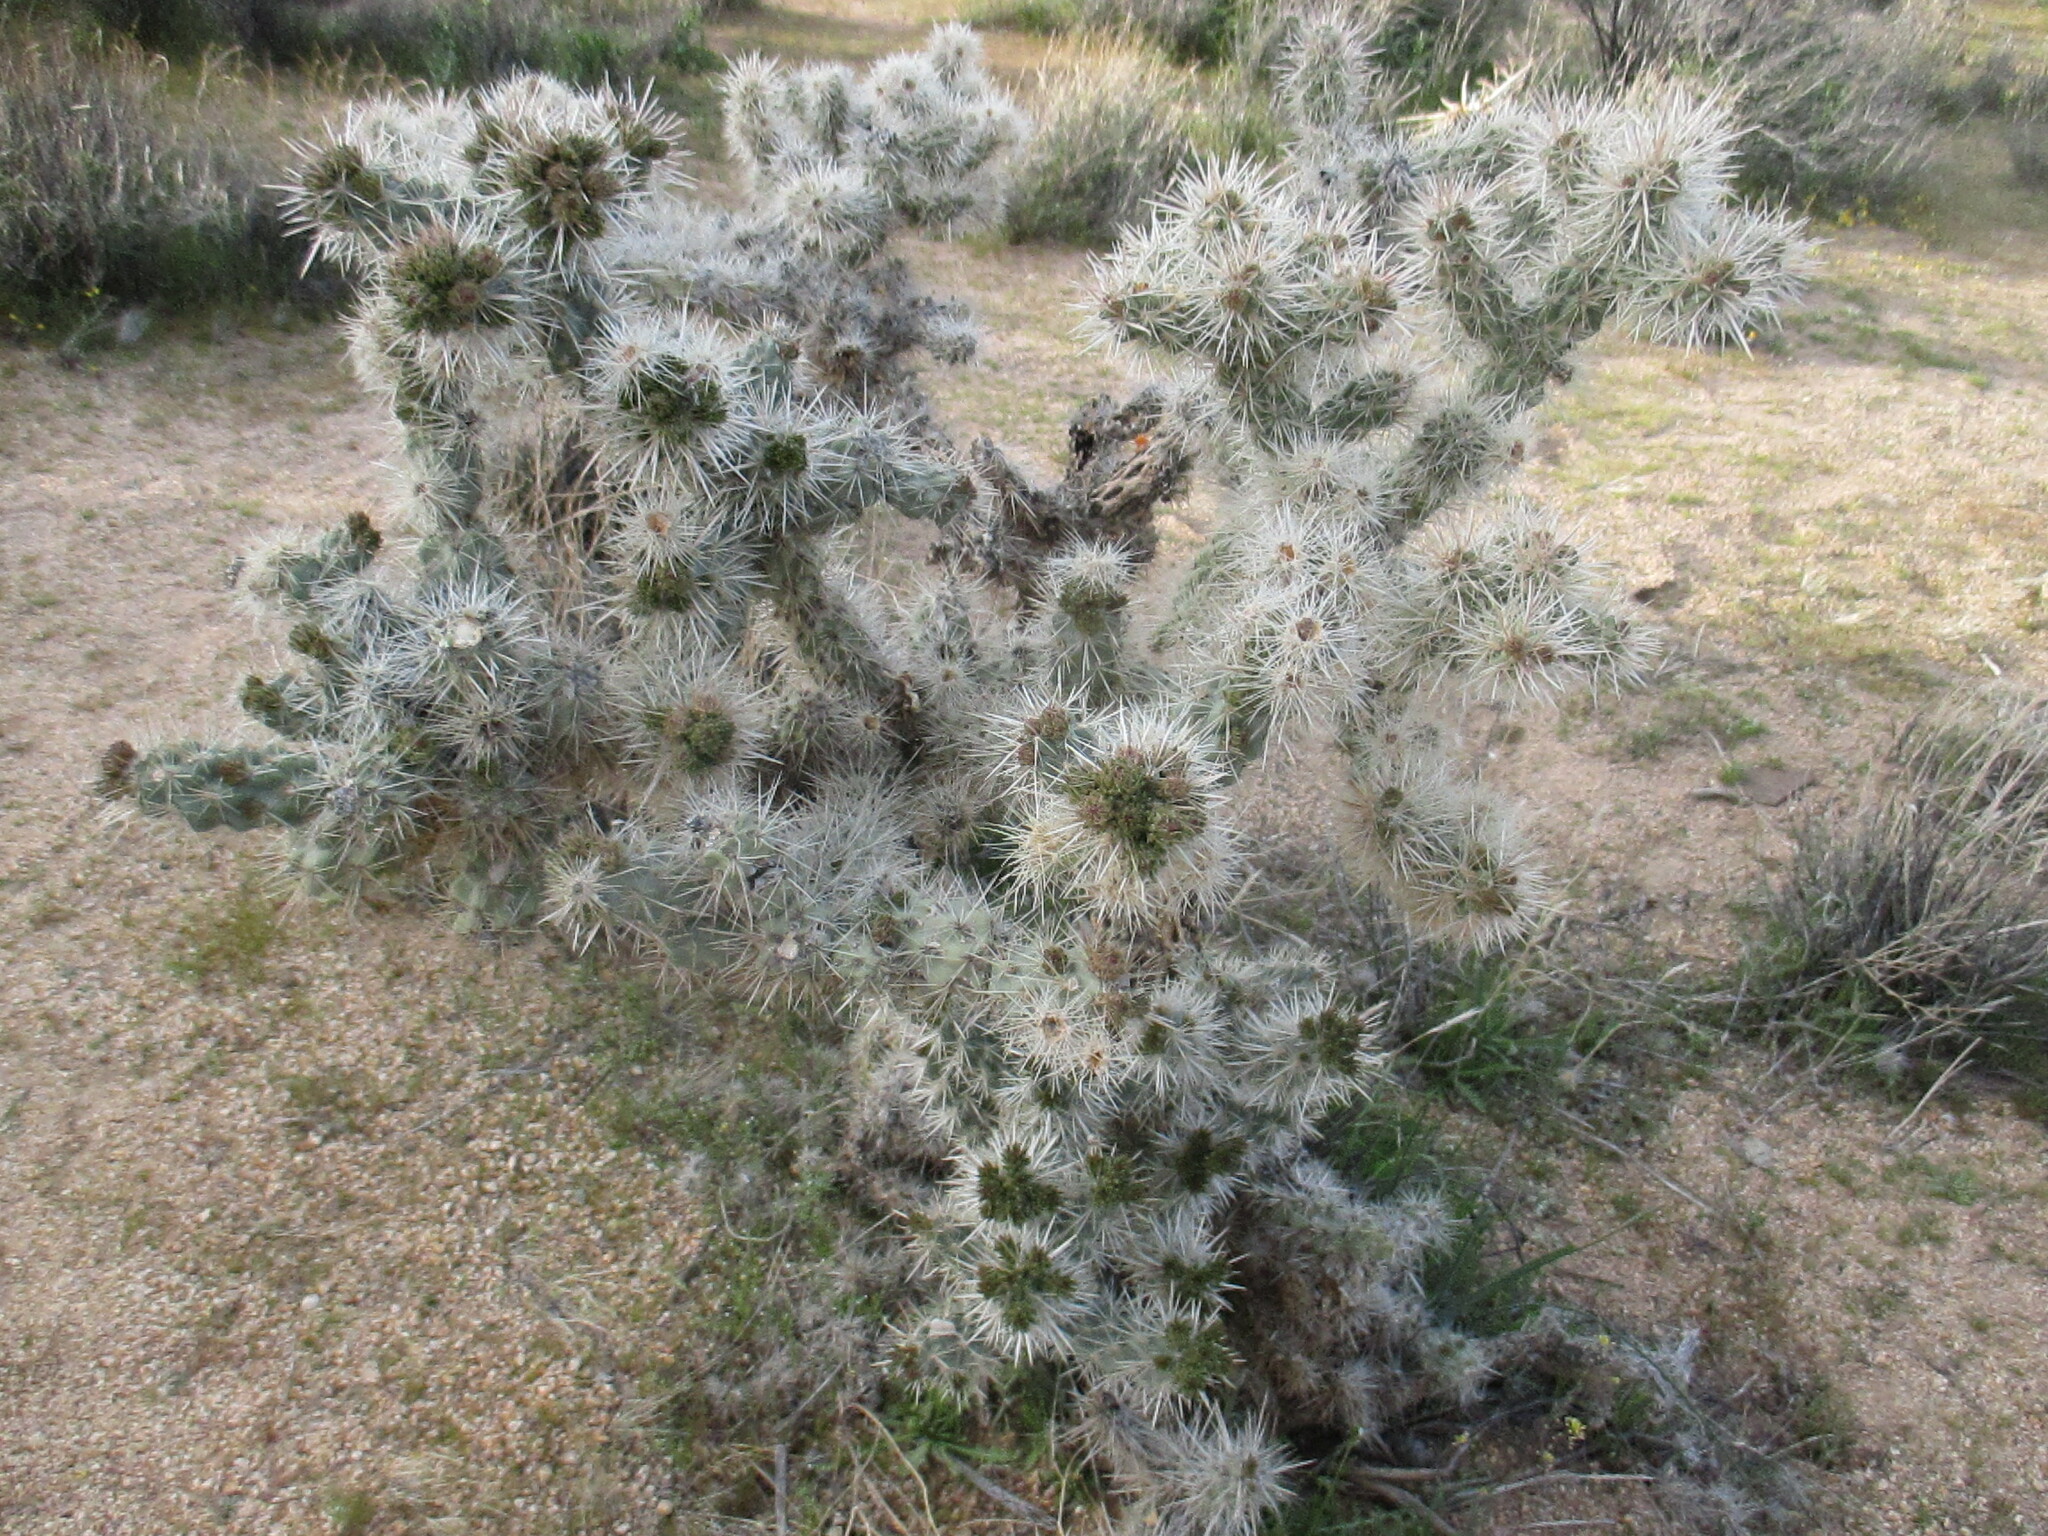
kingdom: Plantae
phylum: Tracheophyta
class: Magnoliopsida
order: Caryophyllales
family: Cactaceae
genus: Cylindropuntia
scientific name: Cylindropuntia echinocarpa
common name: Ground cholla
